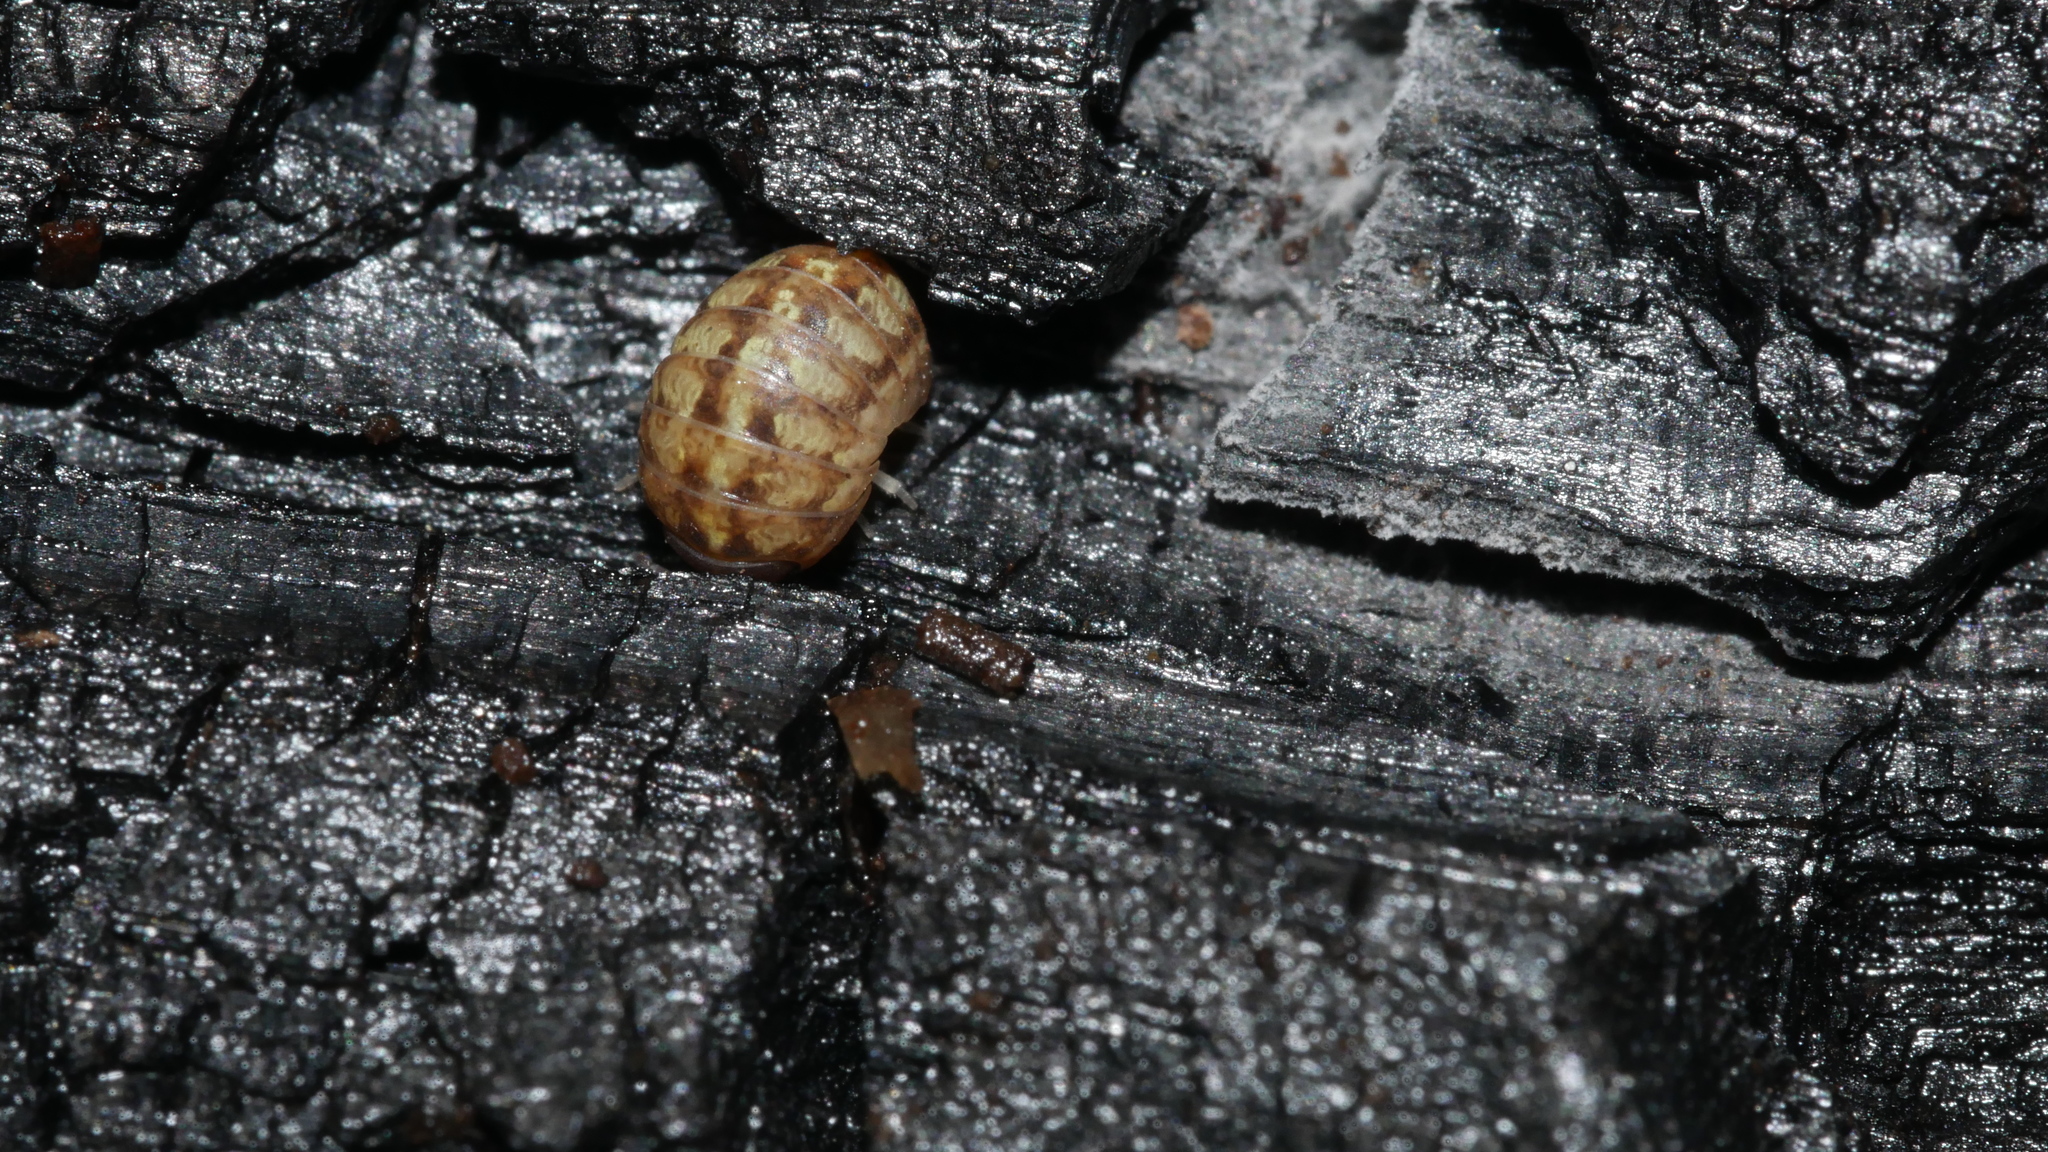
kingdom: Animalia
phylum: Arthropoda
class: Malacostraca
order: Isopoda
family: Armadillidiidae
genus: Armadillidium
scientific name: Armadillidium vulgare
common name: Common pill woodlouse
